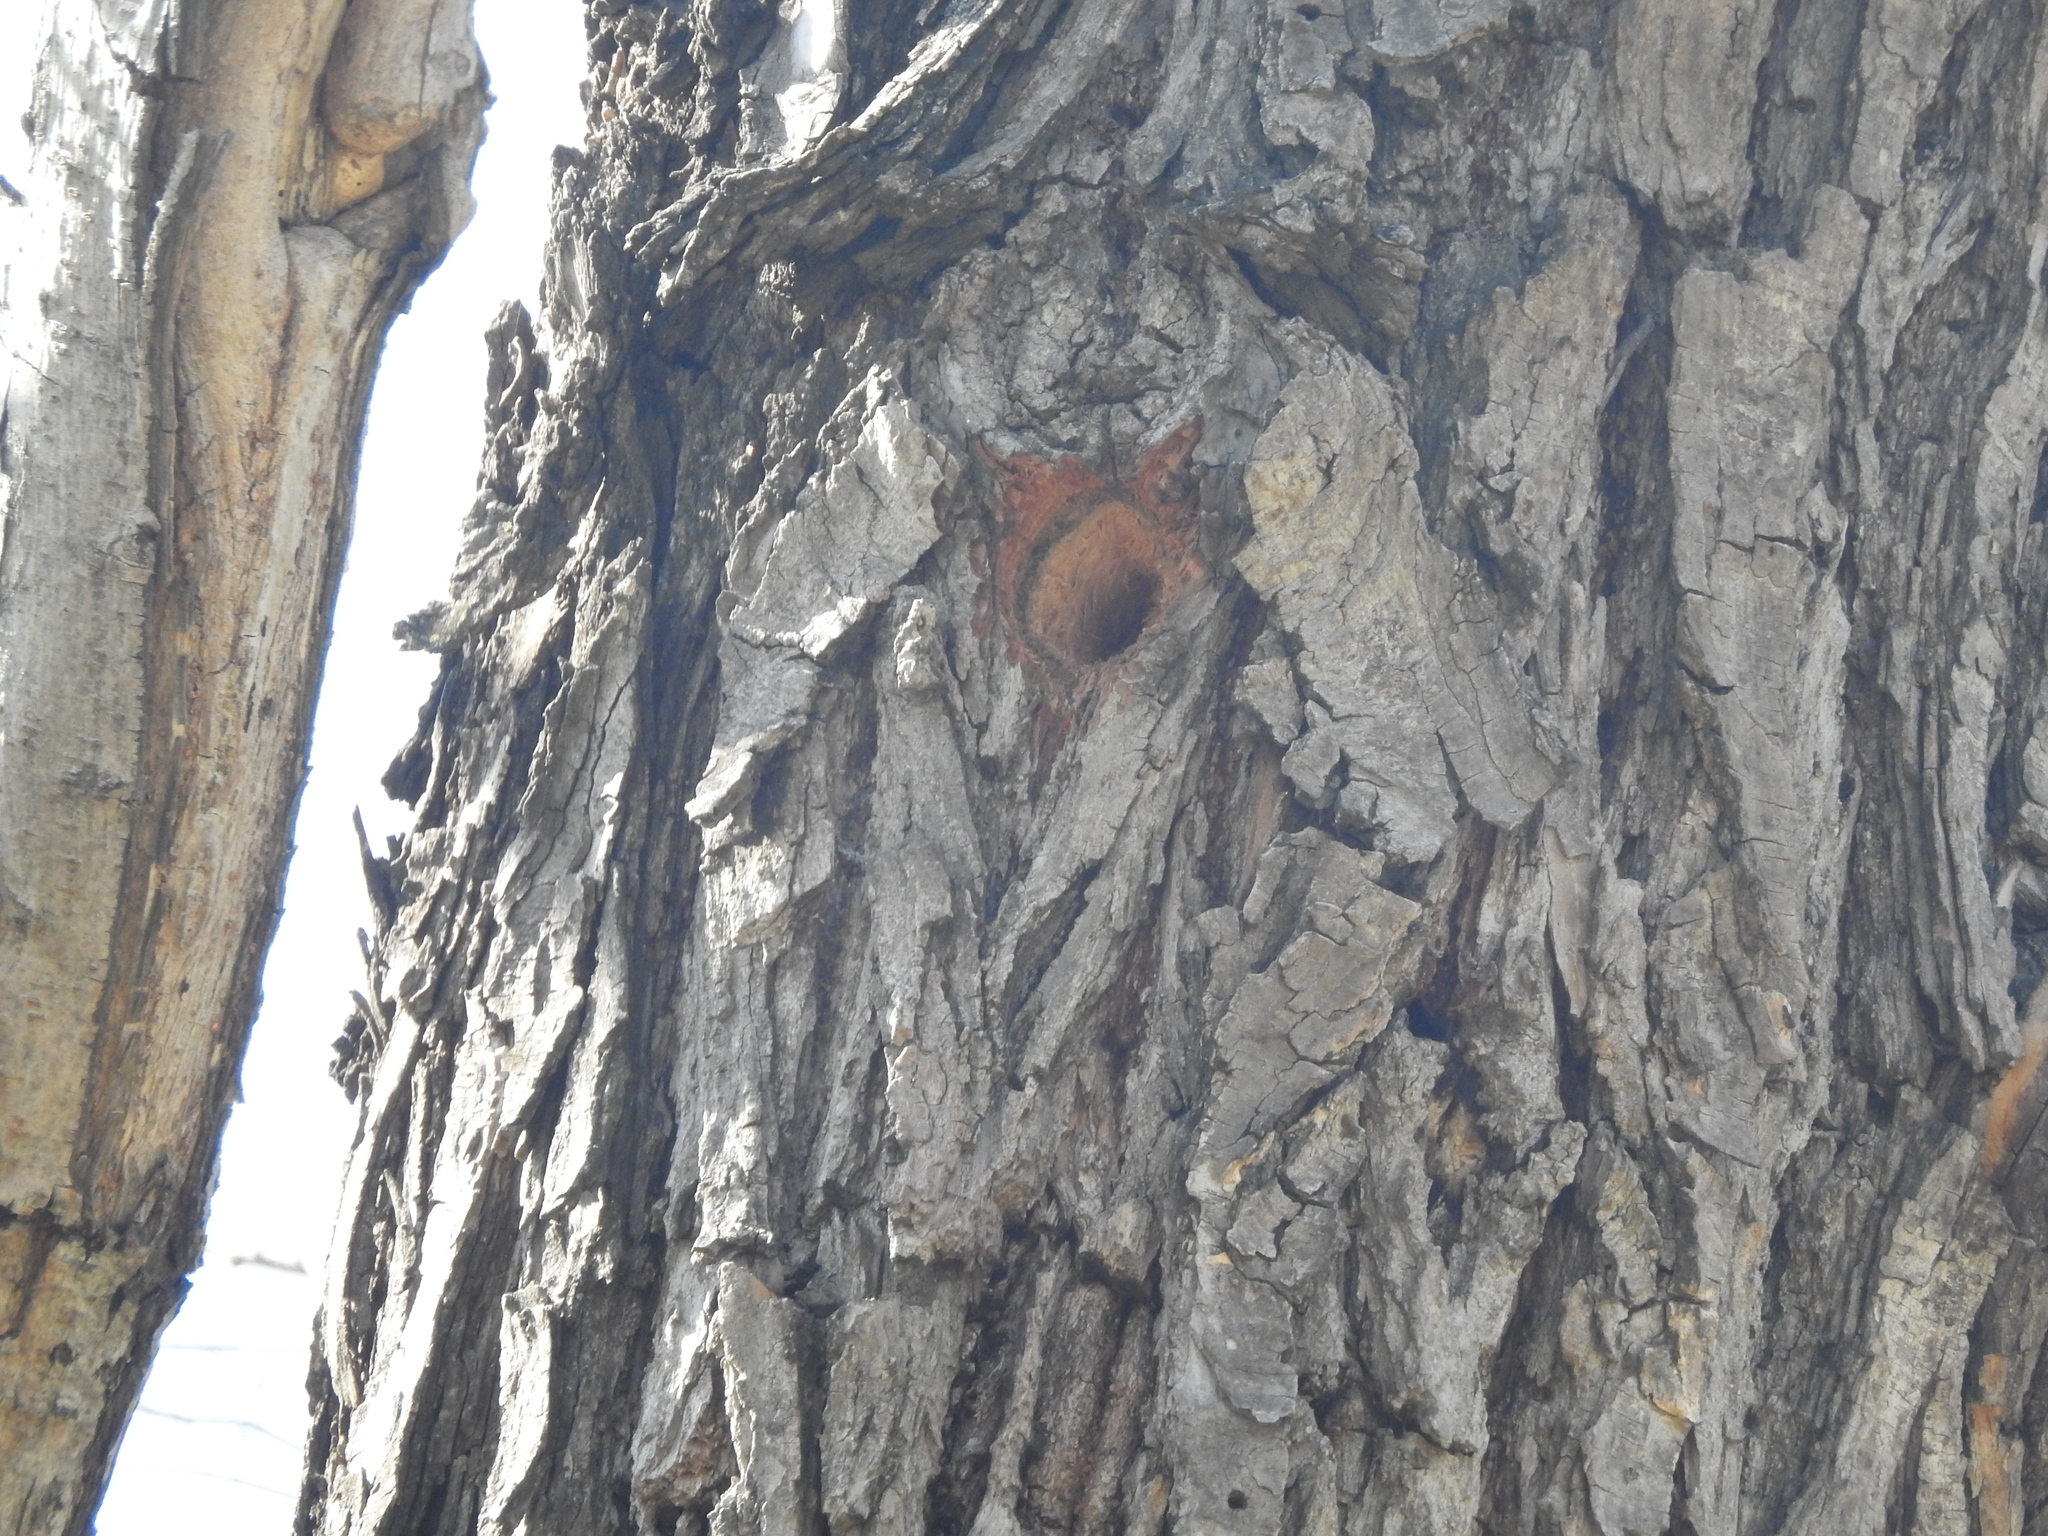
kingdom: Animalia
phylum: Chordata
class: Aves
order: Piciformes
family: Picidae
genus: Melanerpes
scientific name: Melanerpes aurifrons
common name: Golden-fronted woodpecker
